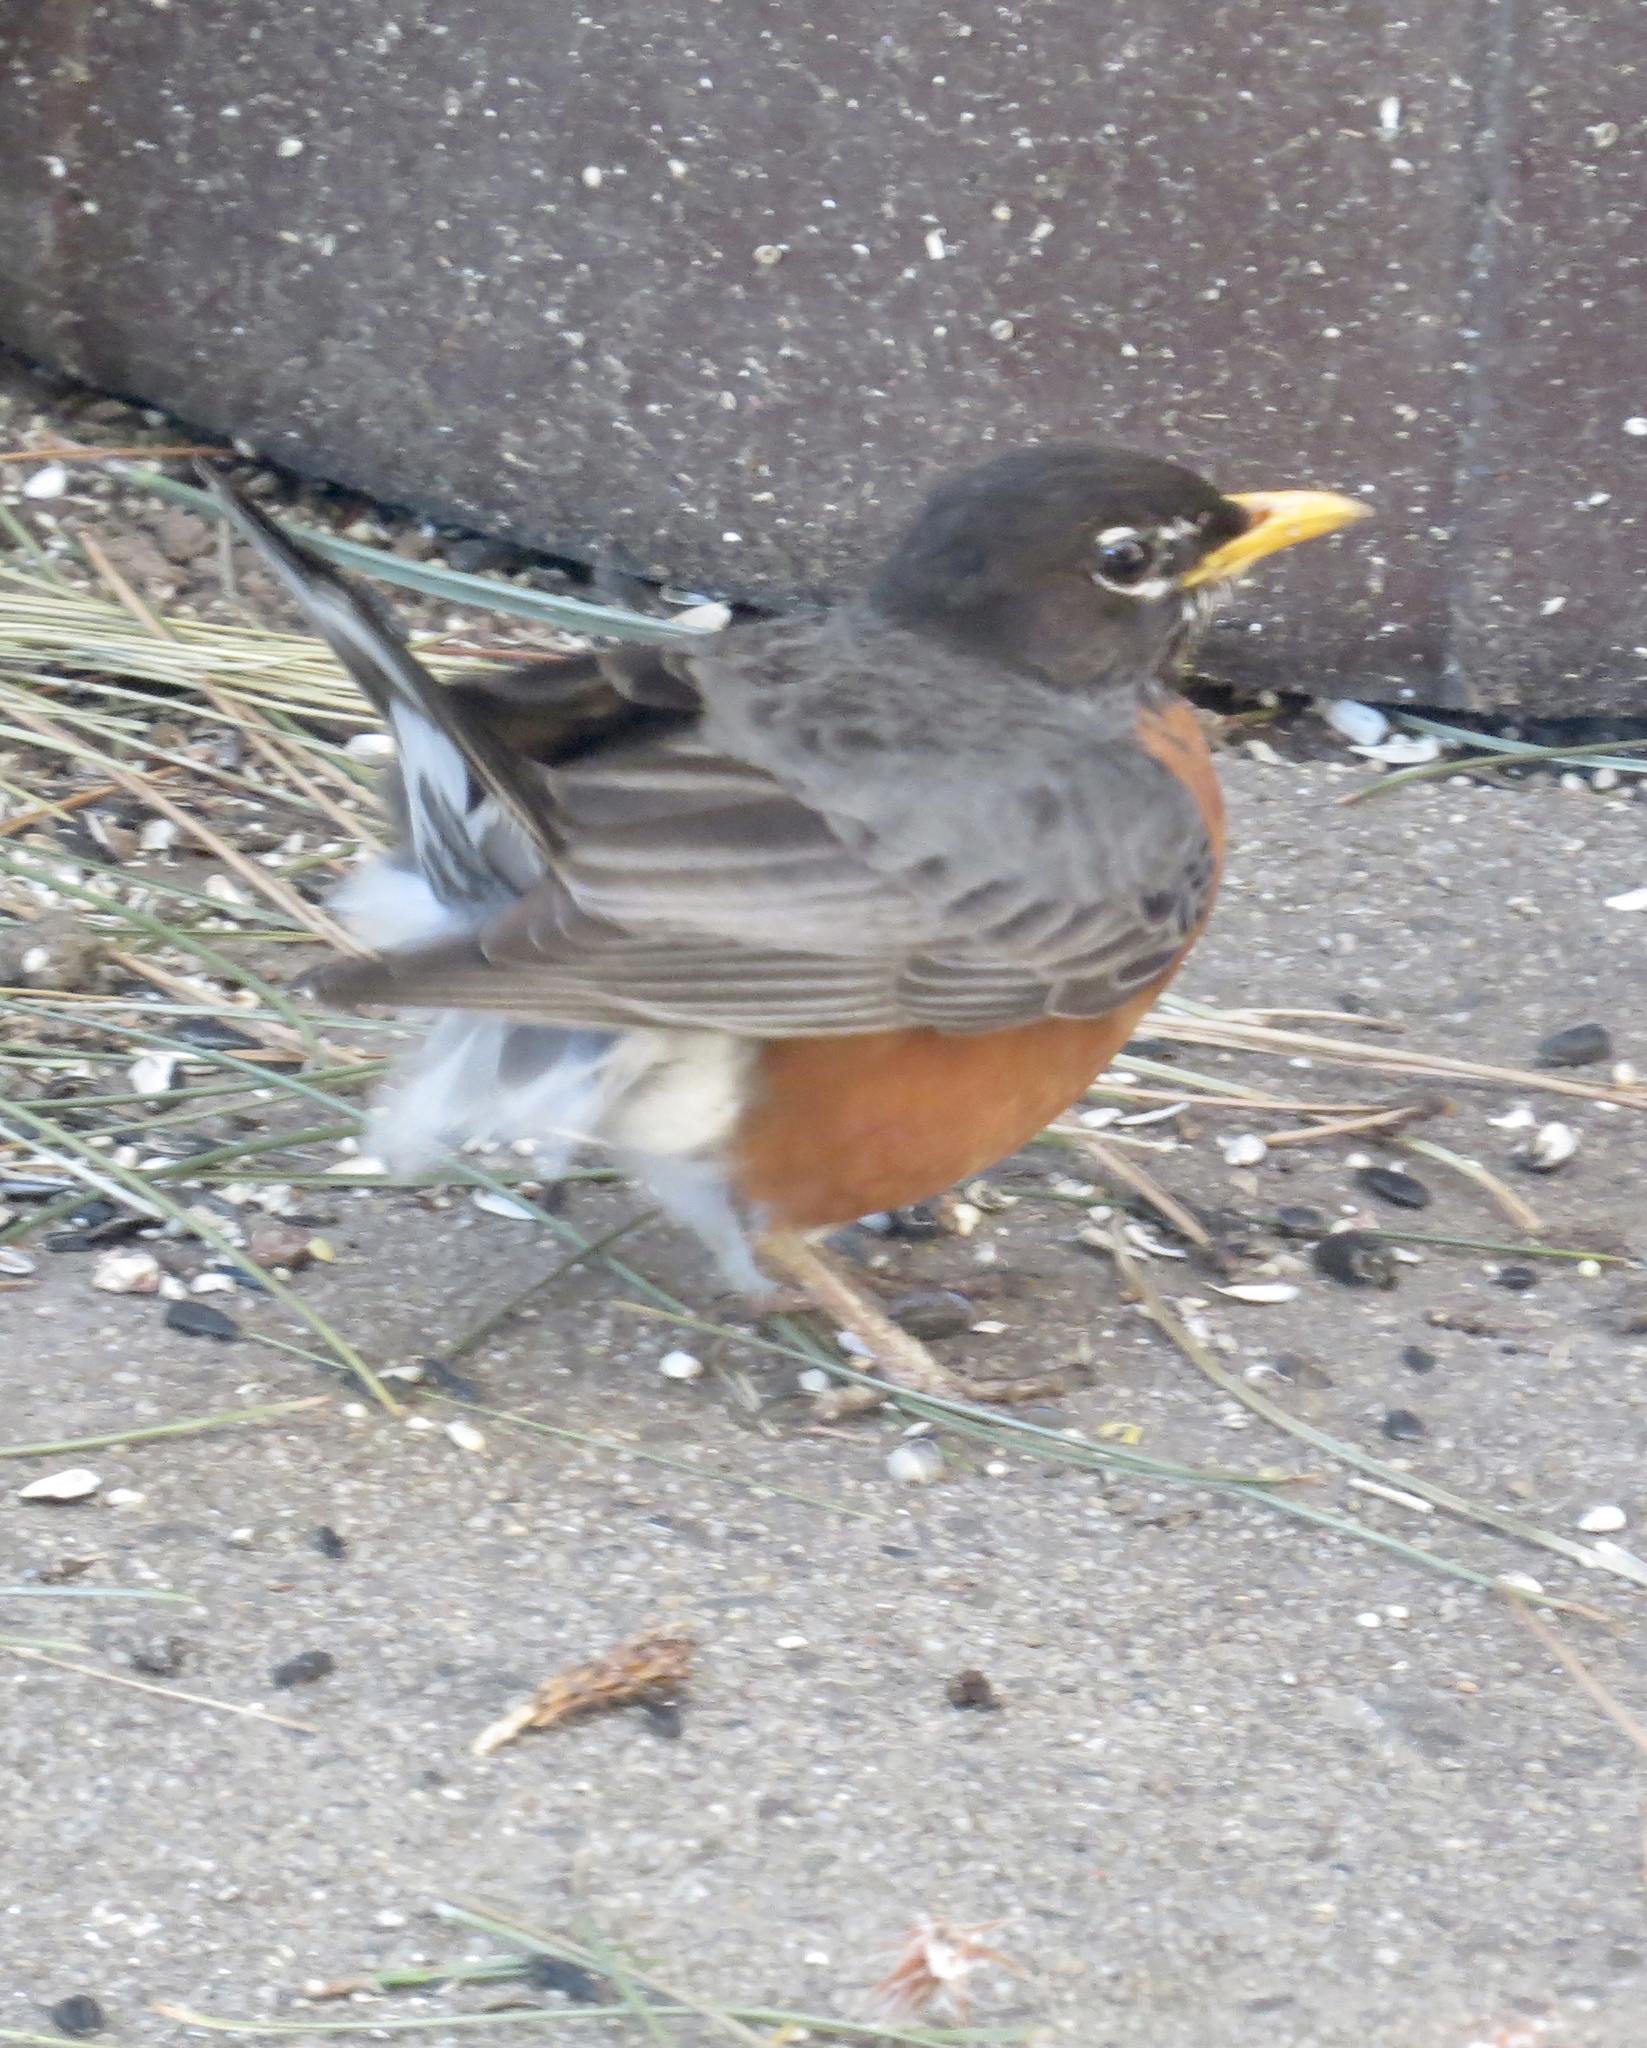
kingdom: Animalia
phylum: Chordata
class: Aves
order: Passeriformes
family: Turdidae
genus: Turdus
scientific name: Turdus migratorius
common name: American robin
